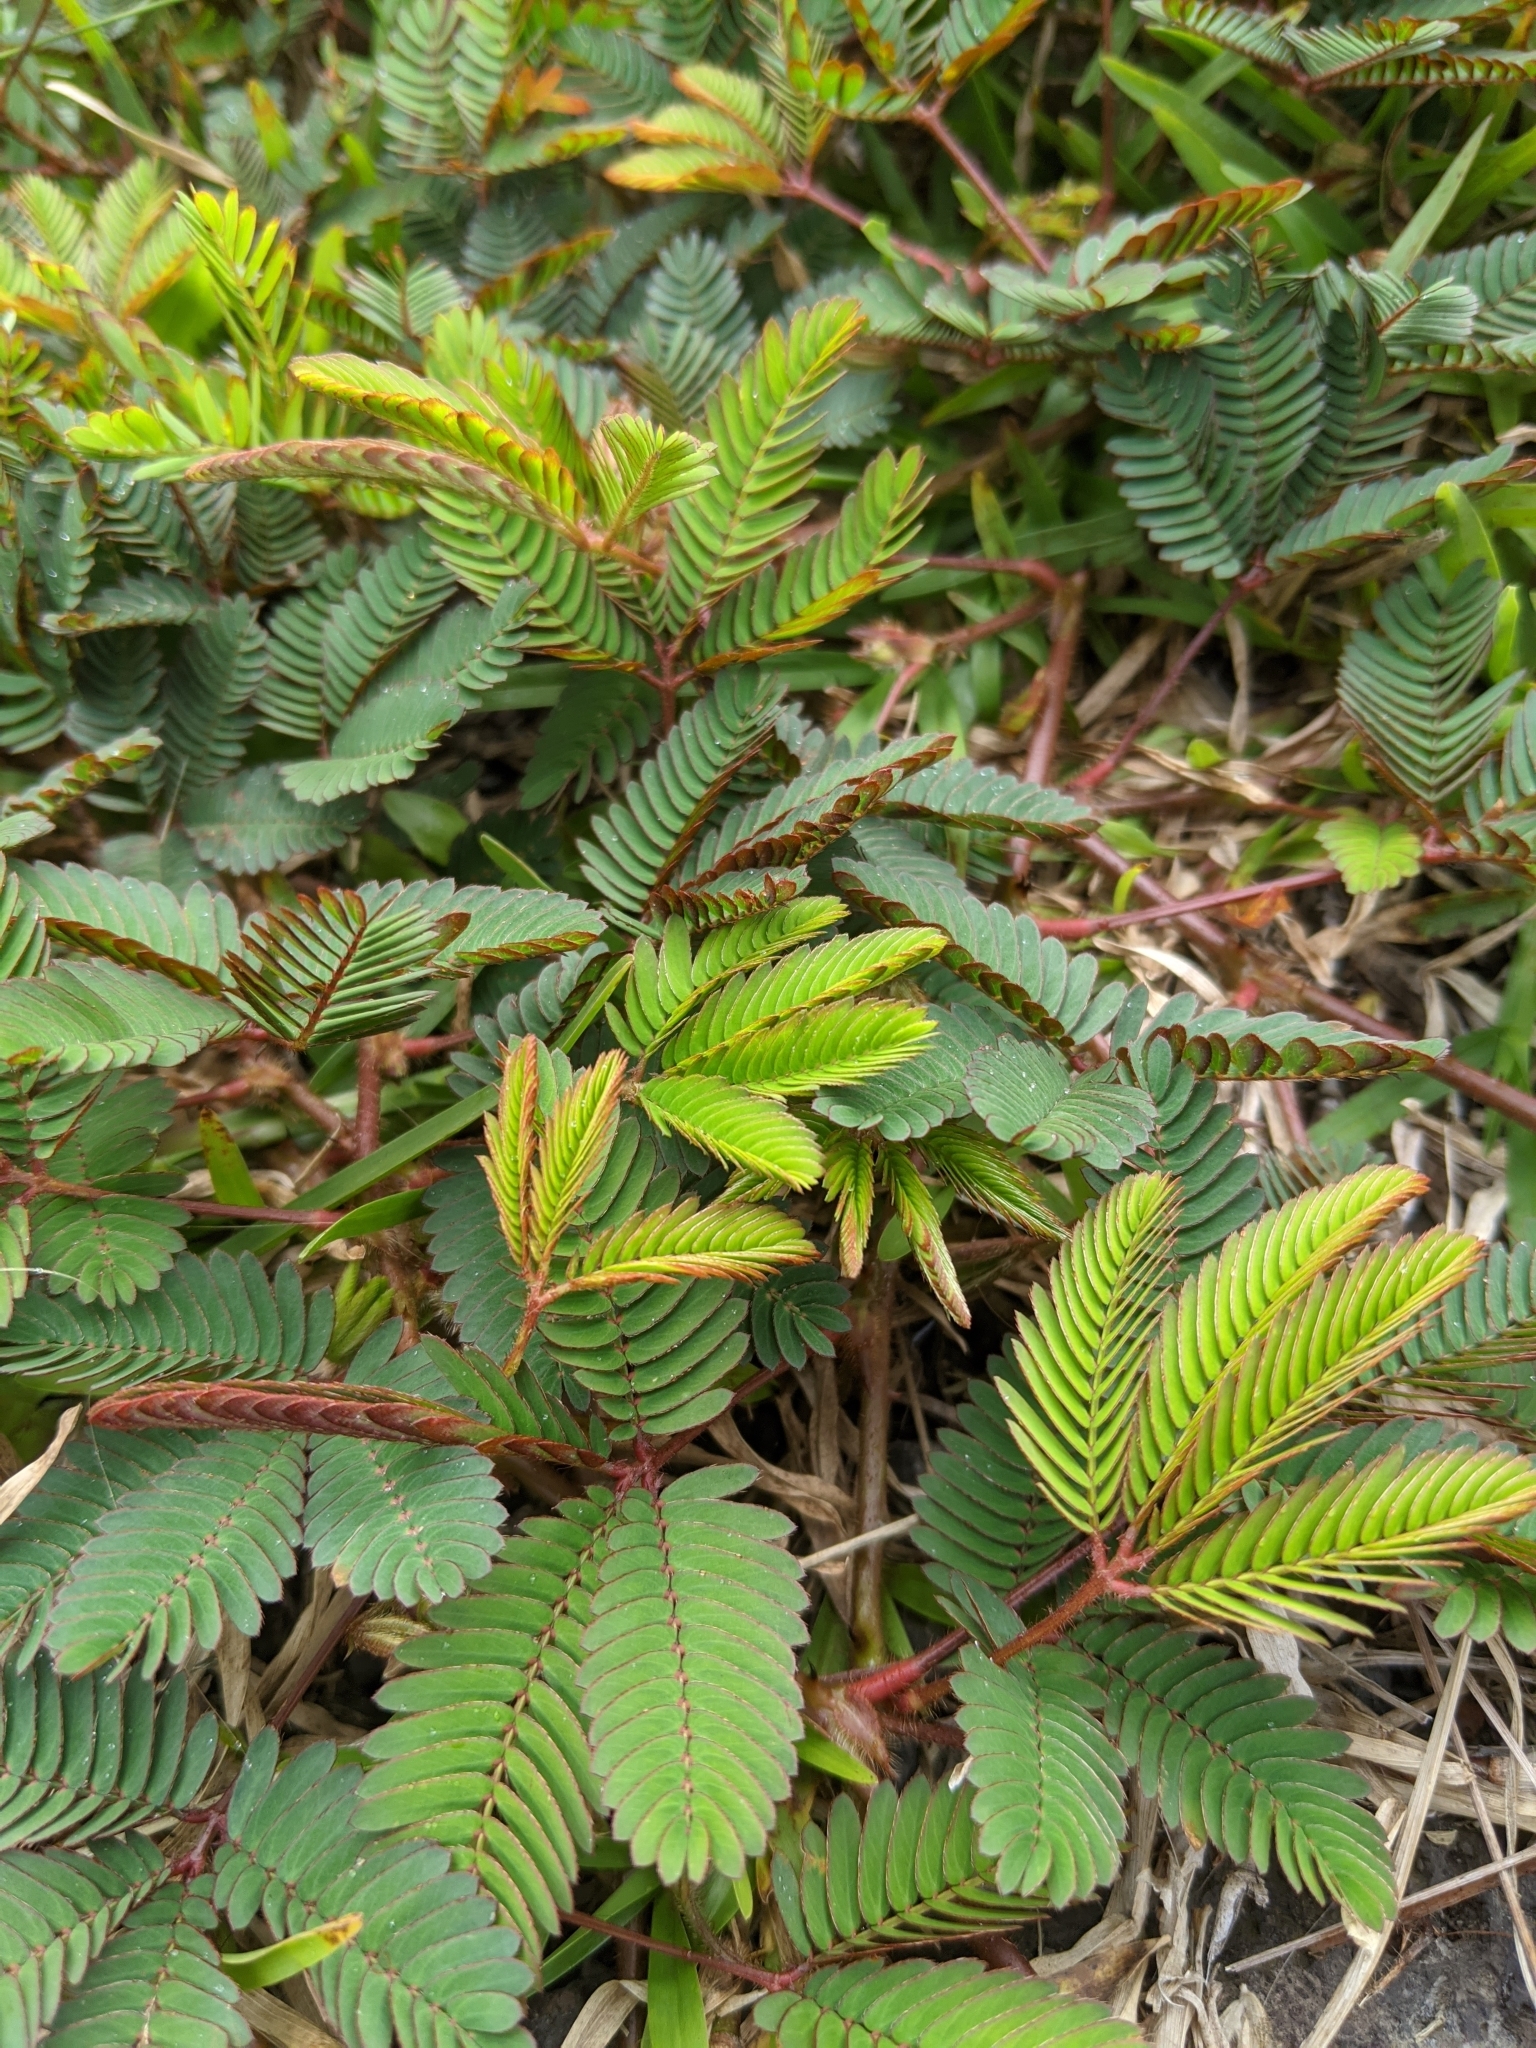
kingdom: Plantae
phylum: Tracheophyta
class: Magnoliopsida
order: Fabales
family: Fabaceae
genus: Mimosa
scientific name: Mimosa pudica
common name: Sensitive plant
